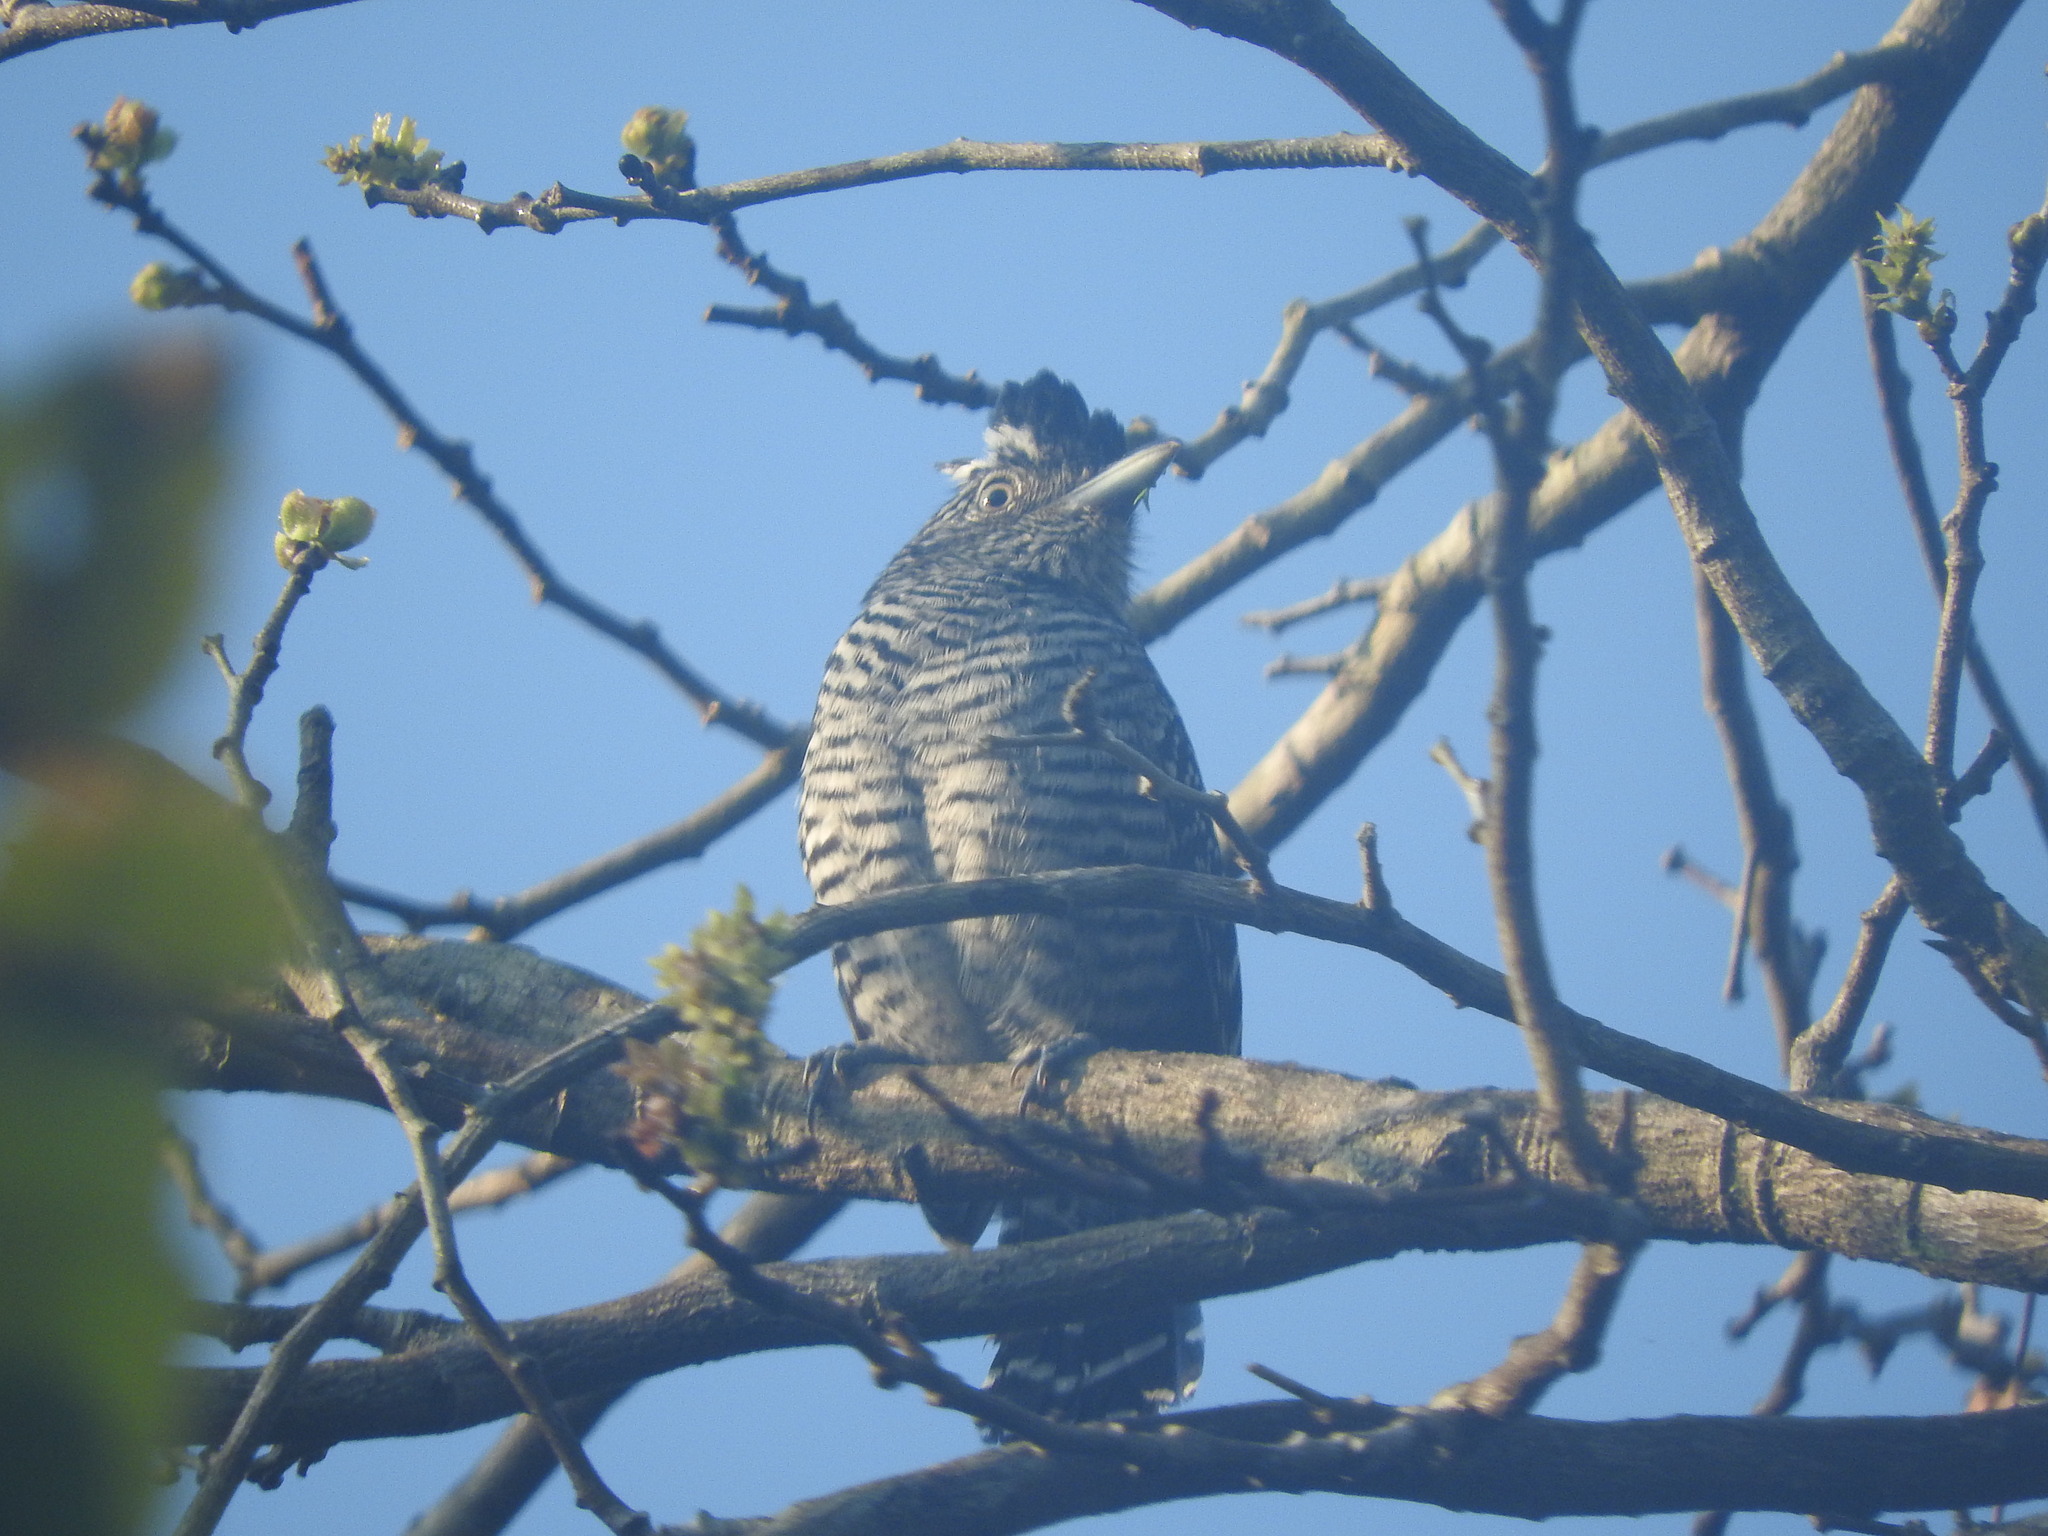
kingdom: Animalia
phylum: Chordata
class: Aves
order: Passeriformes
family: Thamnophilidae
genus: Thamnophilus
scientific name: Thamnophilus doliatus
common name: Barred antshrike
